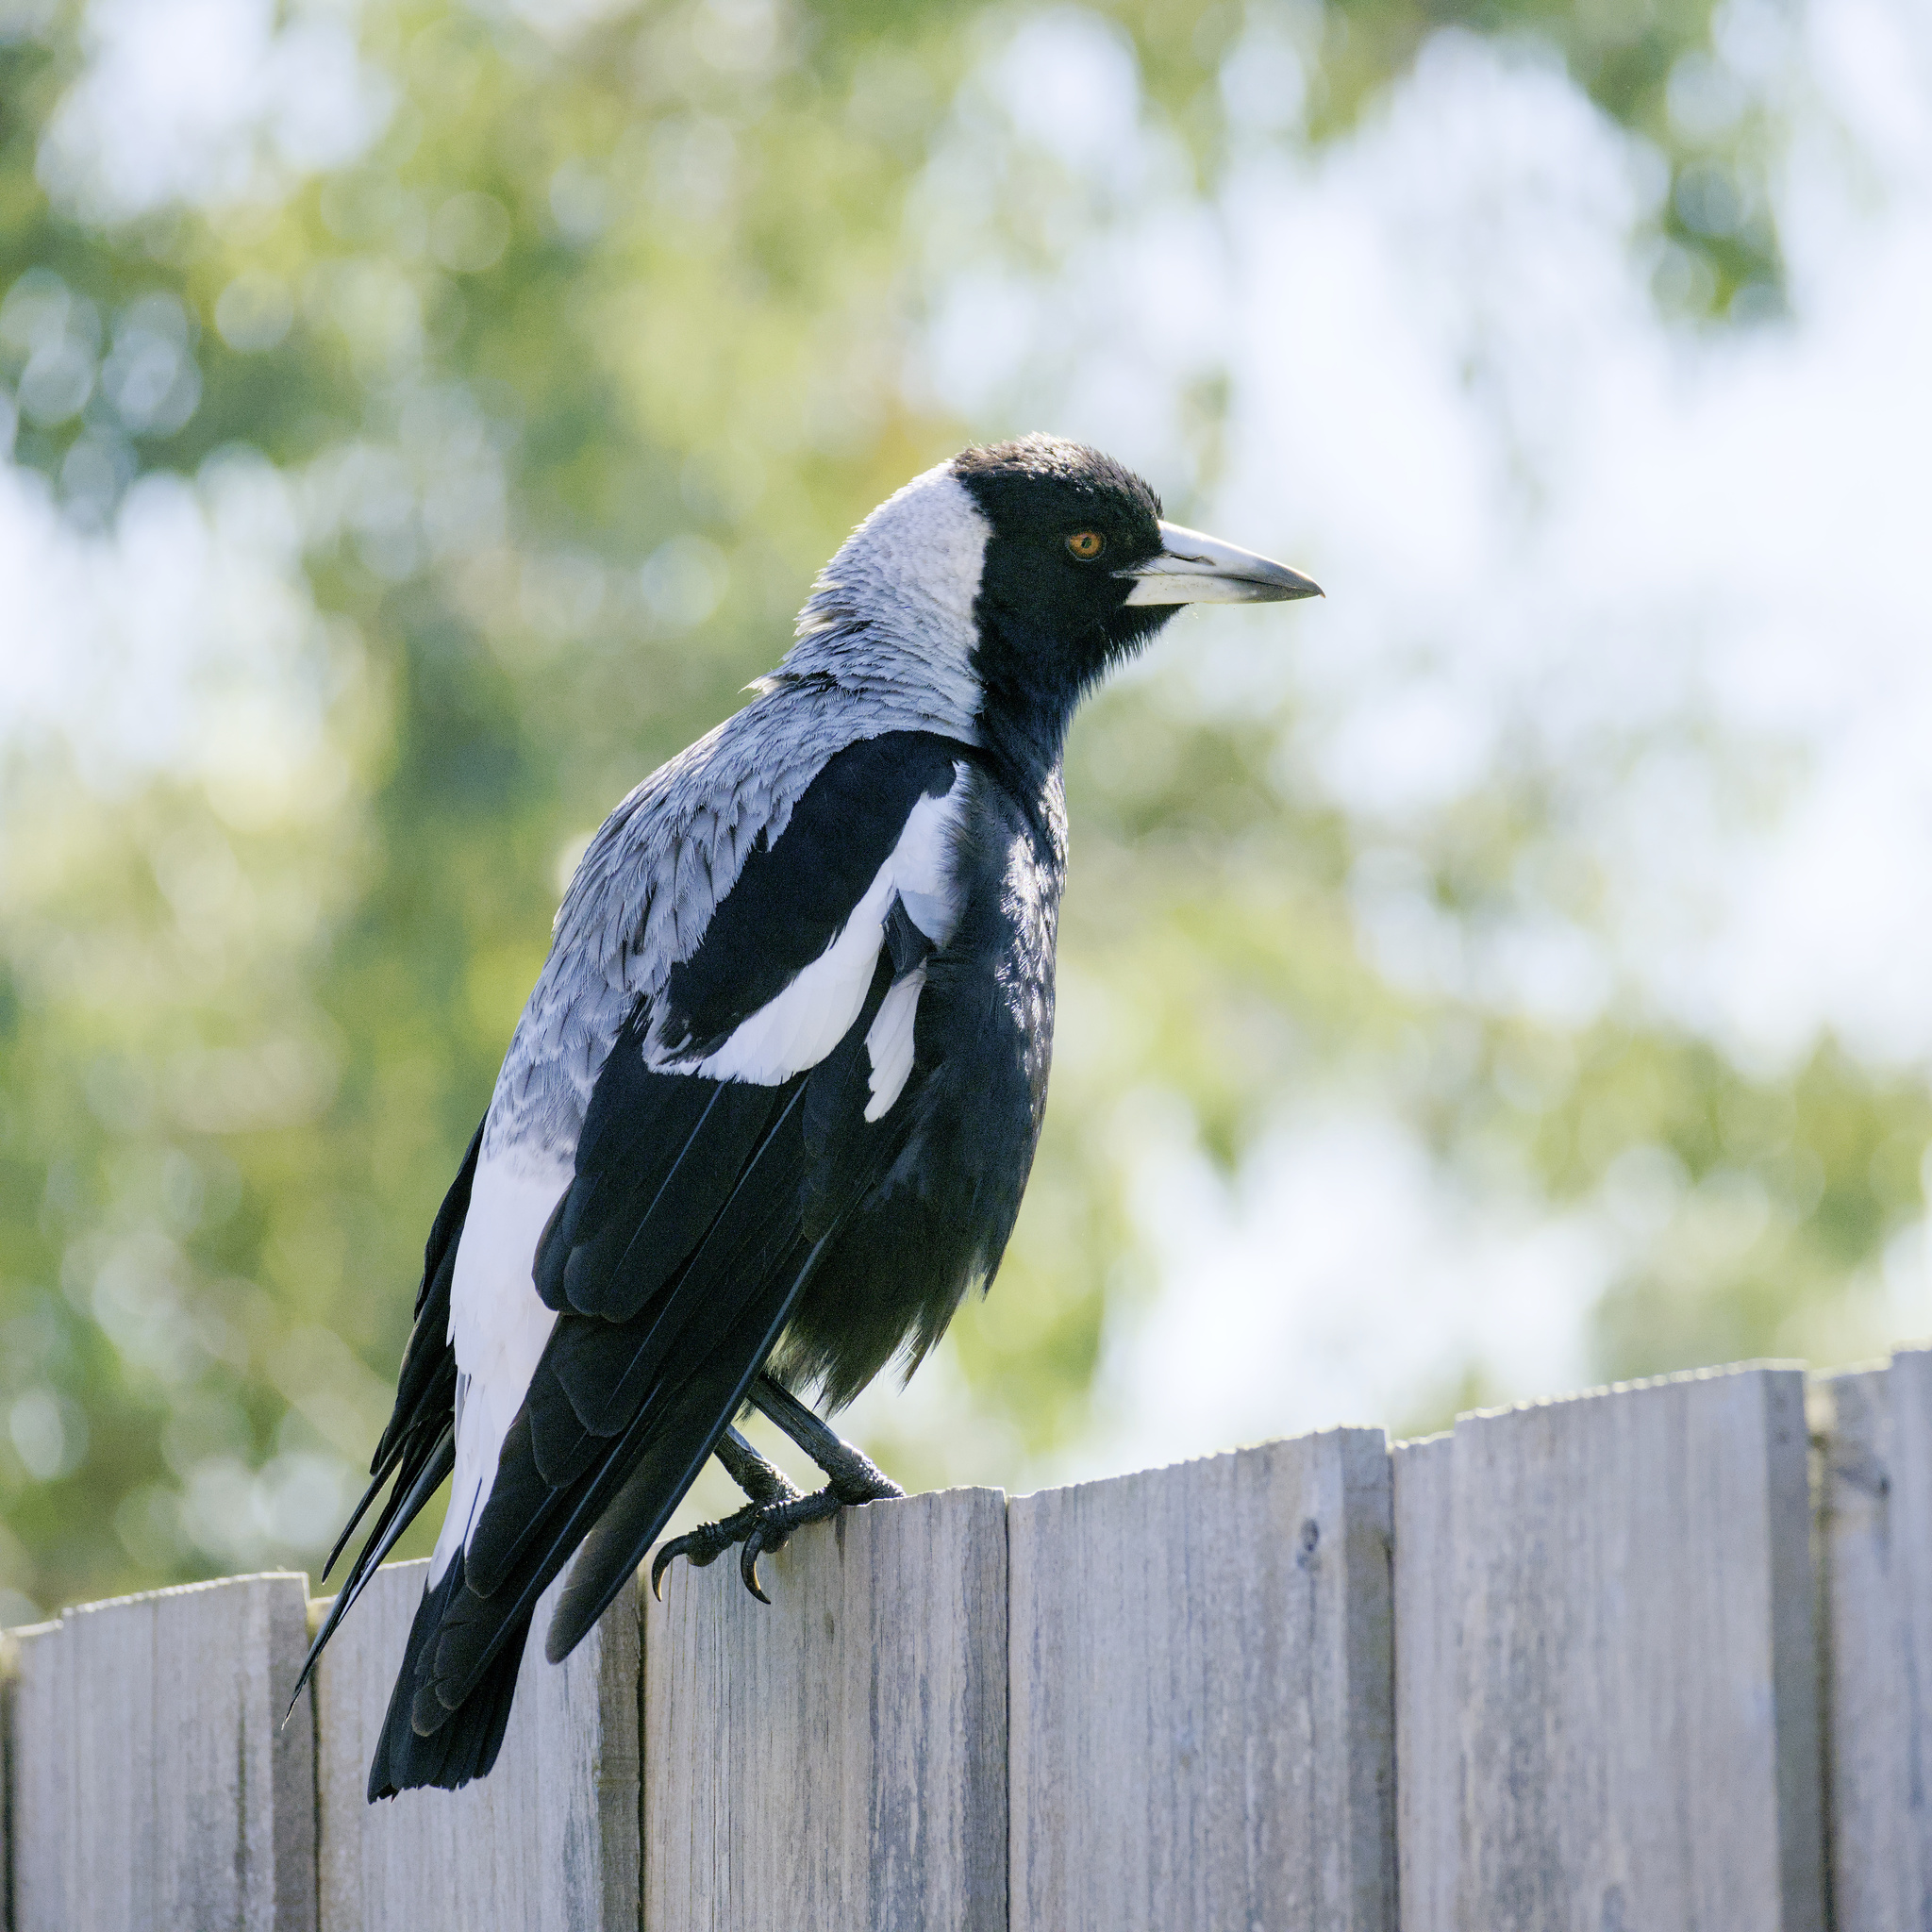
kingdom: Animalia
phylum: Chordata
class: Aves
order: Passeriformes
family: Cracticidae
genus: Gymnorhina
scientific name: Gymnorhina tibicen
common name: Australian magpie
